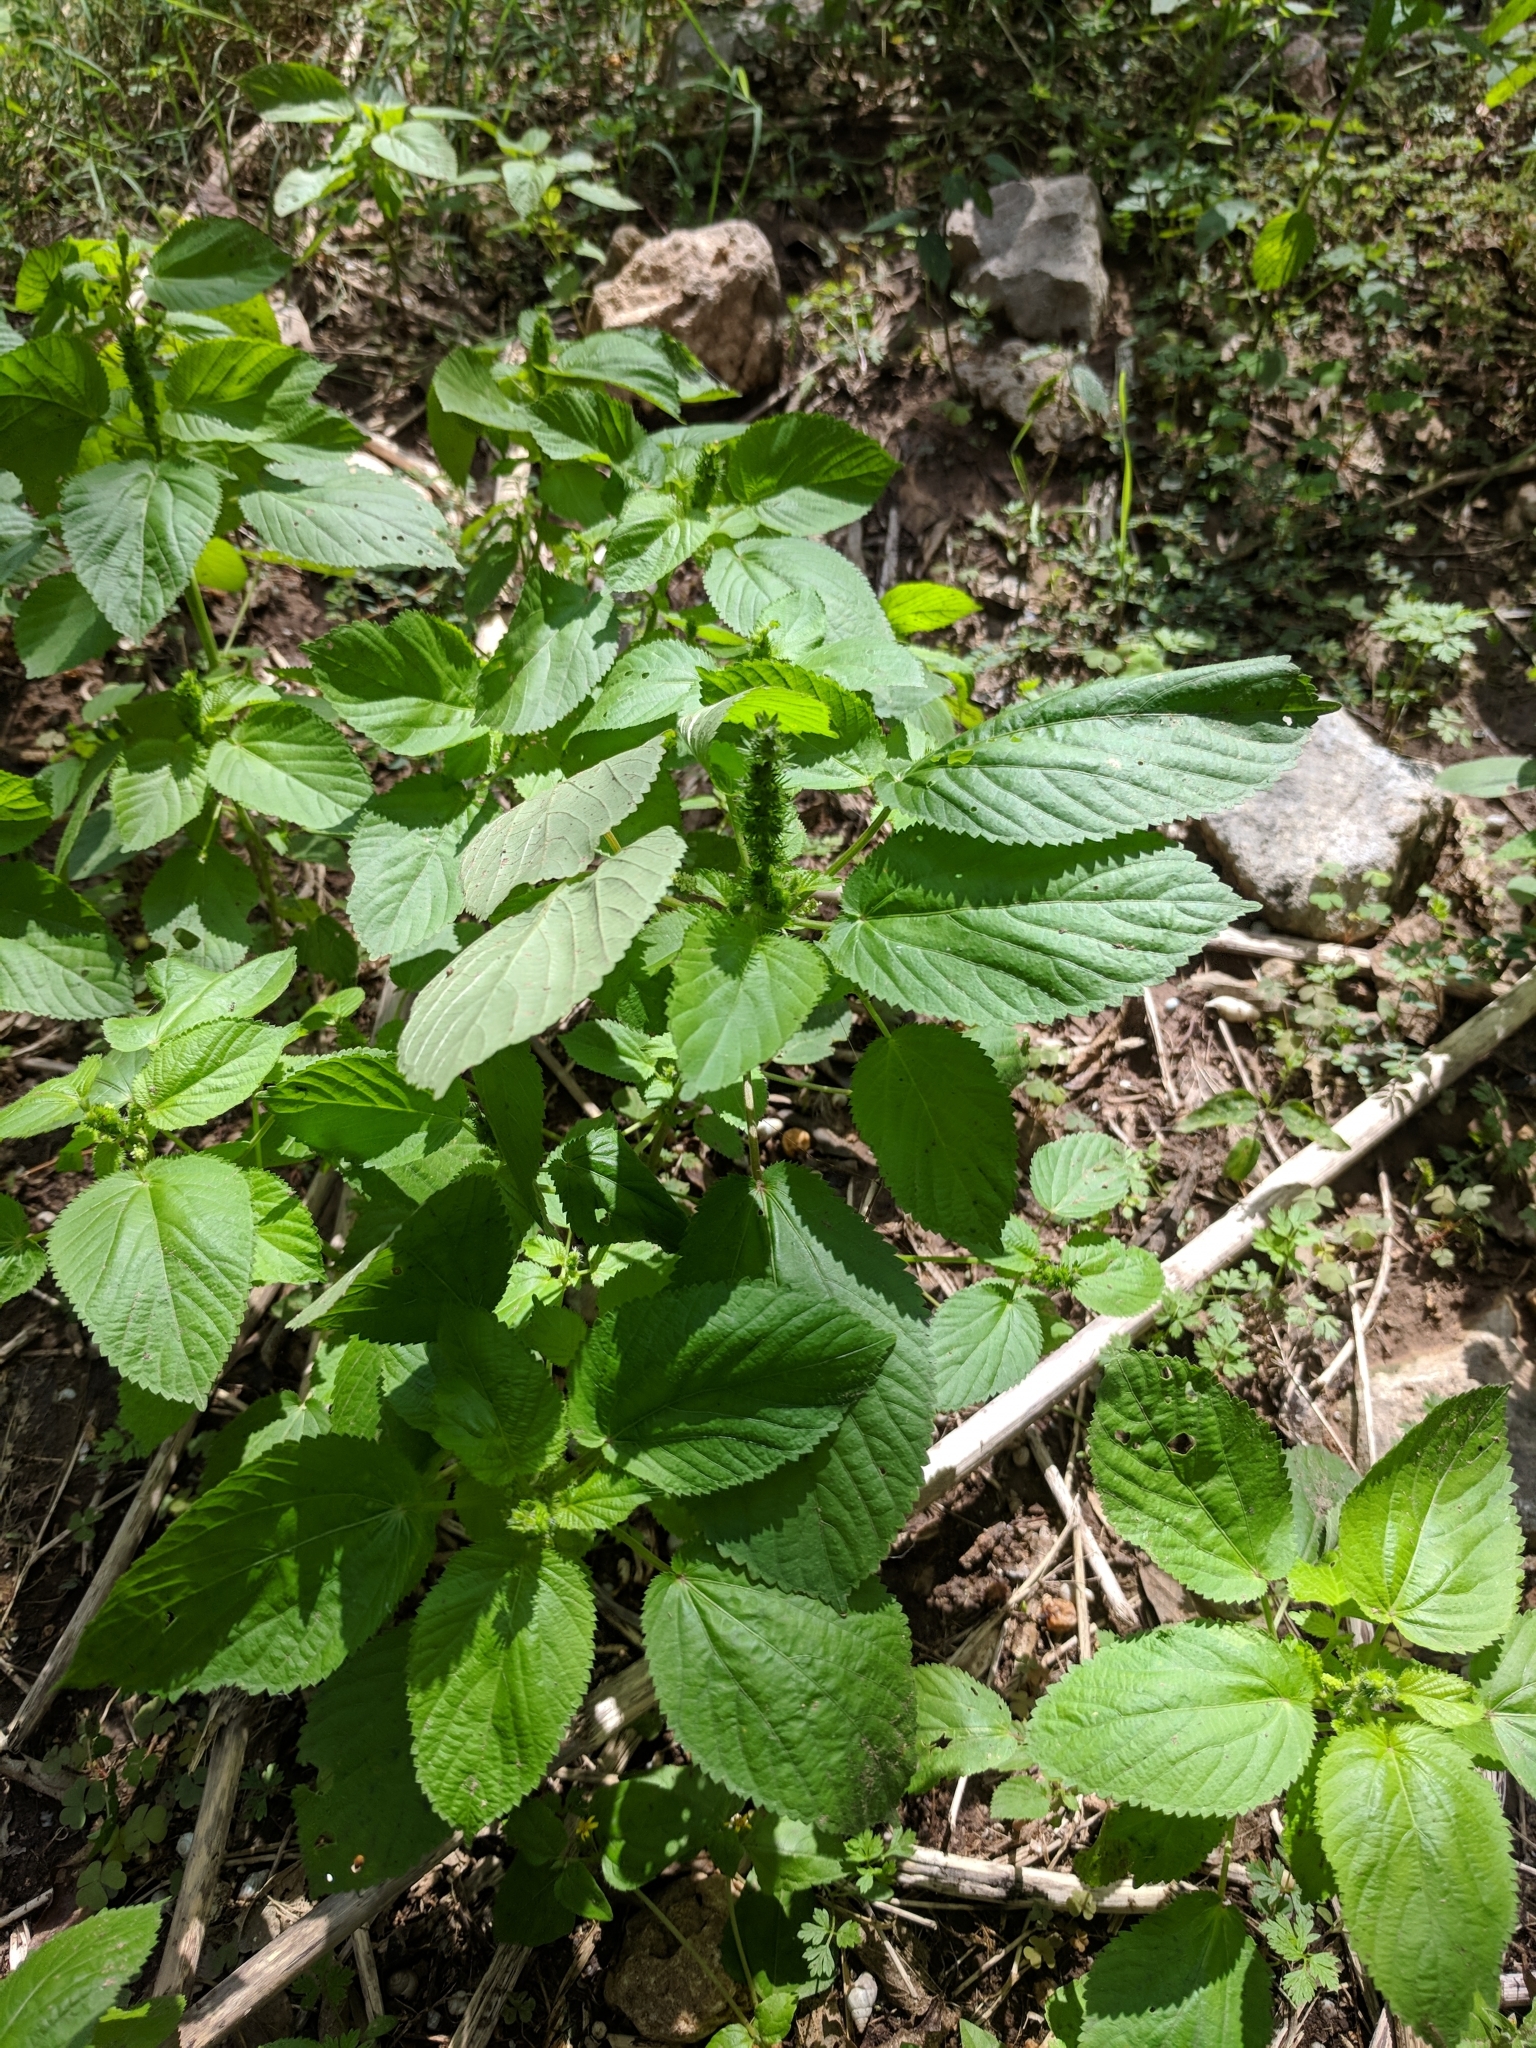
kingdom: Plantae
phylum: Tracheophyta
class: Magnoliopsida
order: Malpighiales
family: Euphorbiaceae
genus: Acalypha
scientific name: Acalypha ostryifolia
